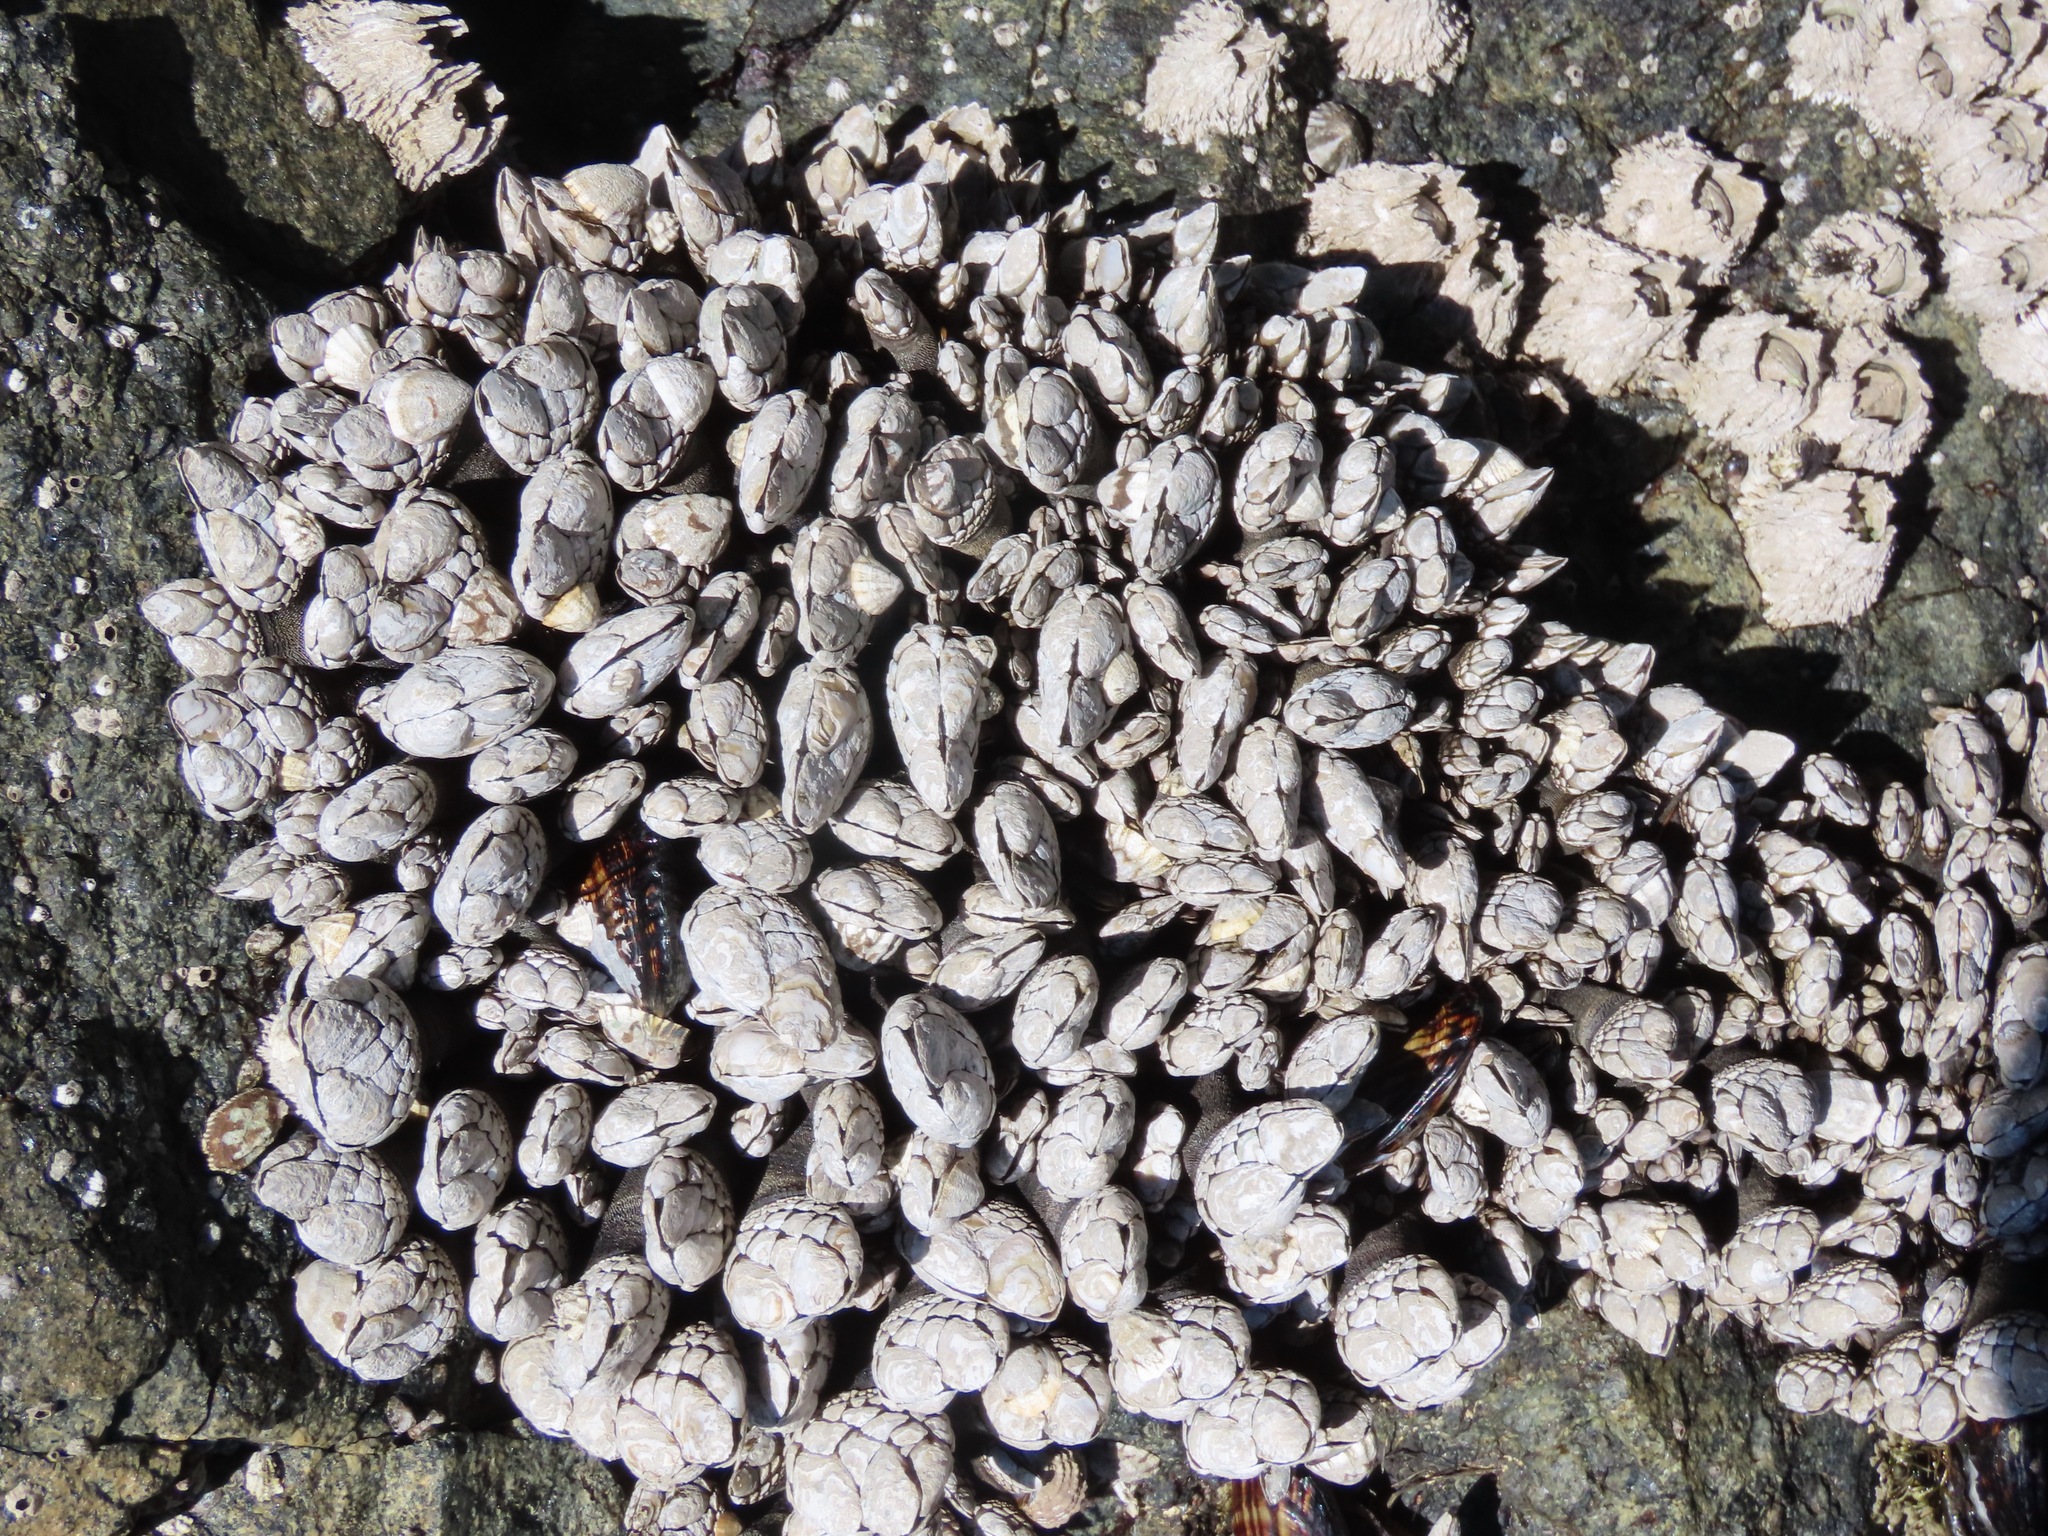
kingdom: Animalia
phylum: Arthropoda
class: Maxillopoda
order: Pedunculata
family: Pollicipedidae
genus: Pollicipes
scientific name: Pollicipes polymerus
